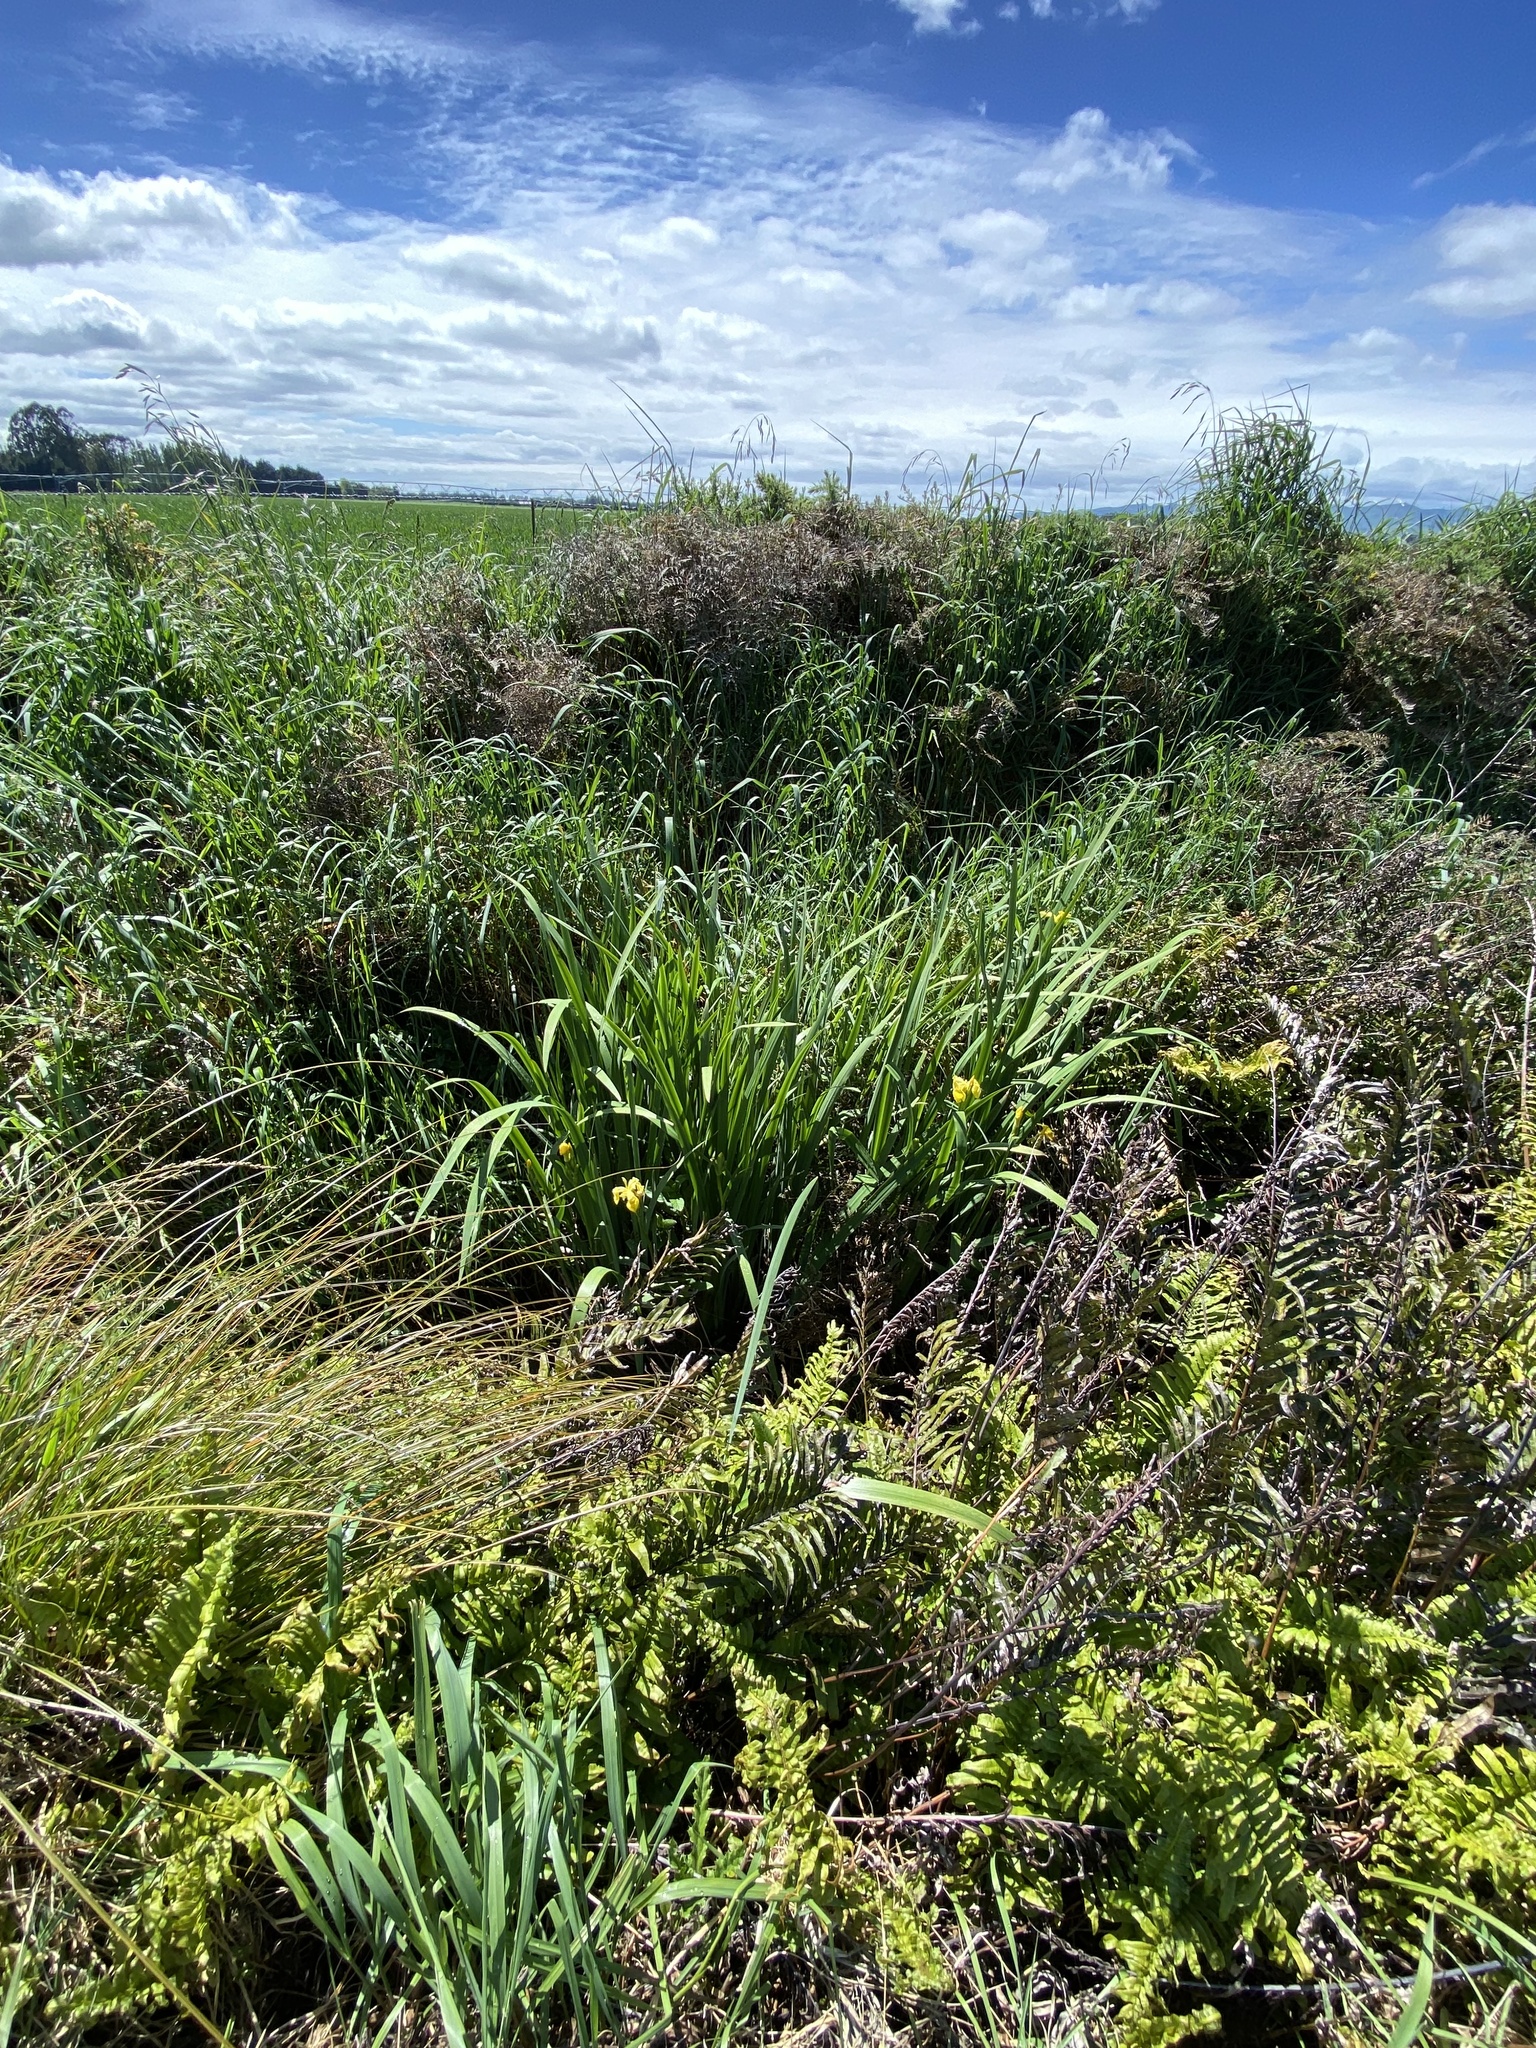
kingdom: Plantae
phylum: Tracheophyta
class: Liliopsida
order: Asparagales
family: Iridaceae
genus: Iris
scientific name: Iris pseudacorus
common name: Yellow flag
